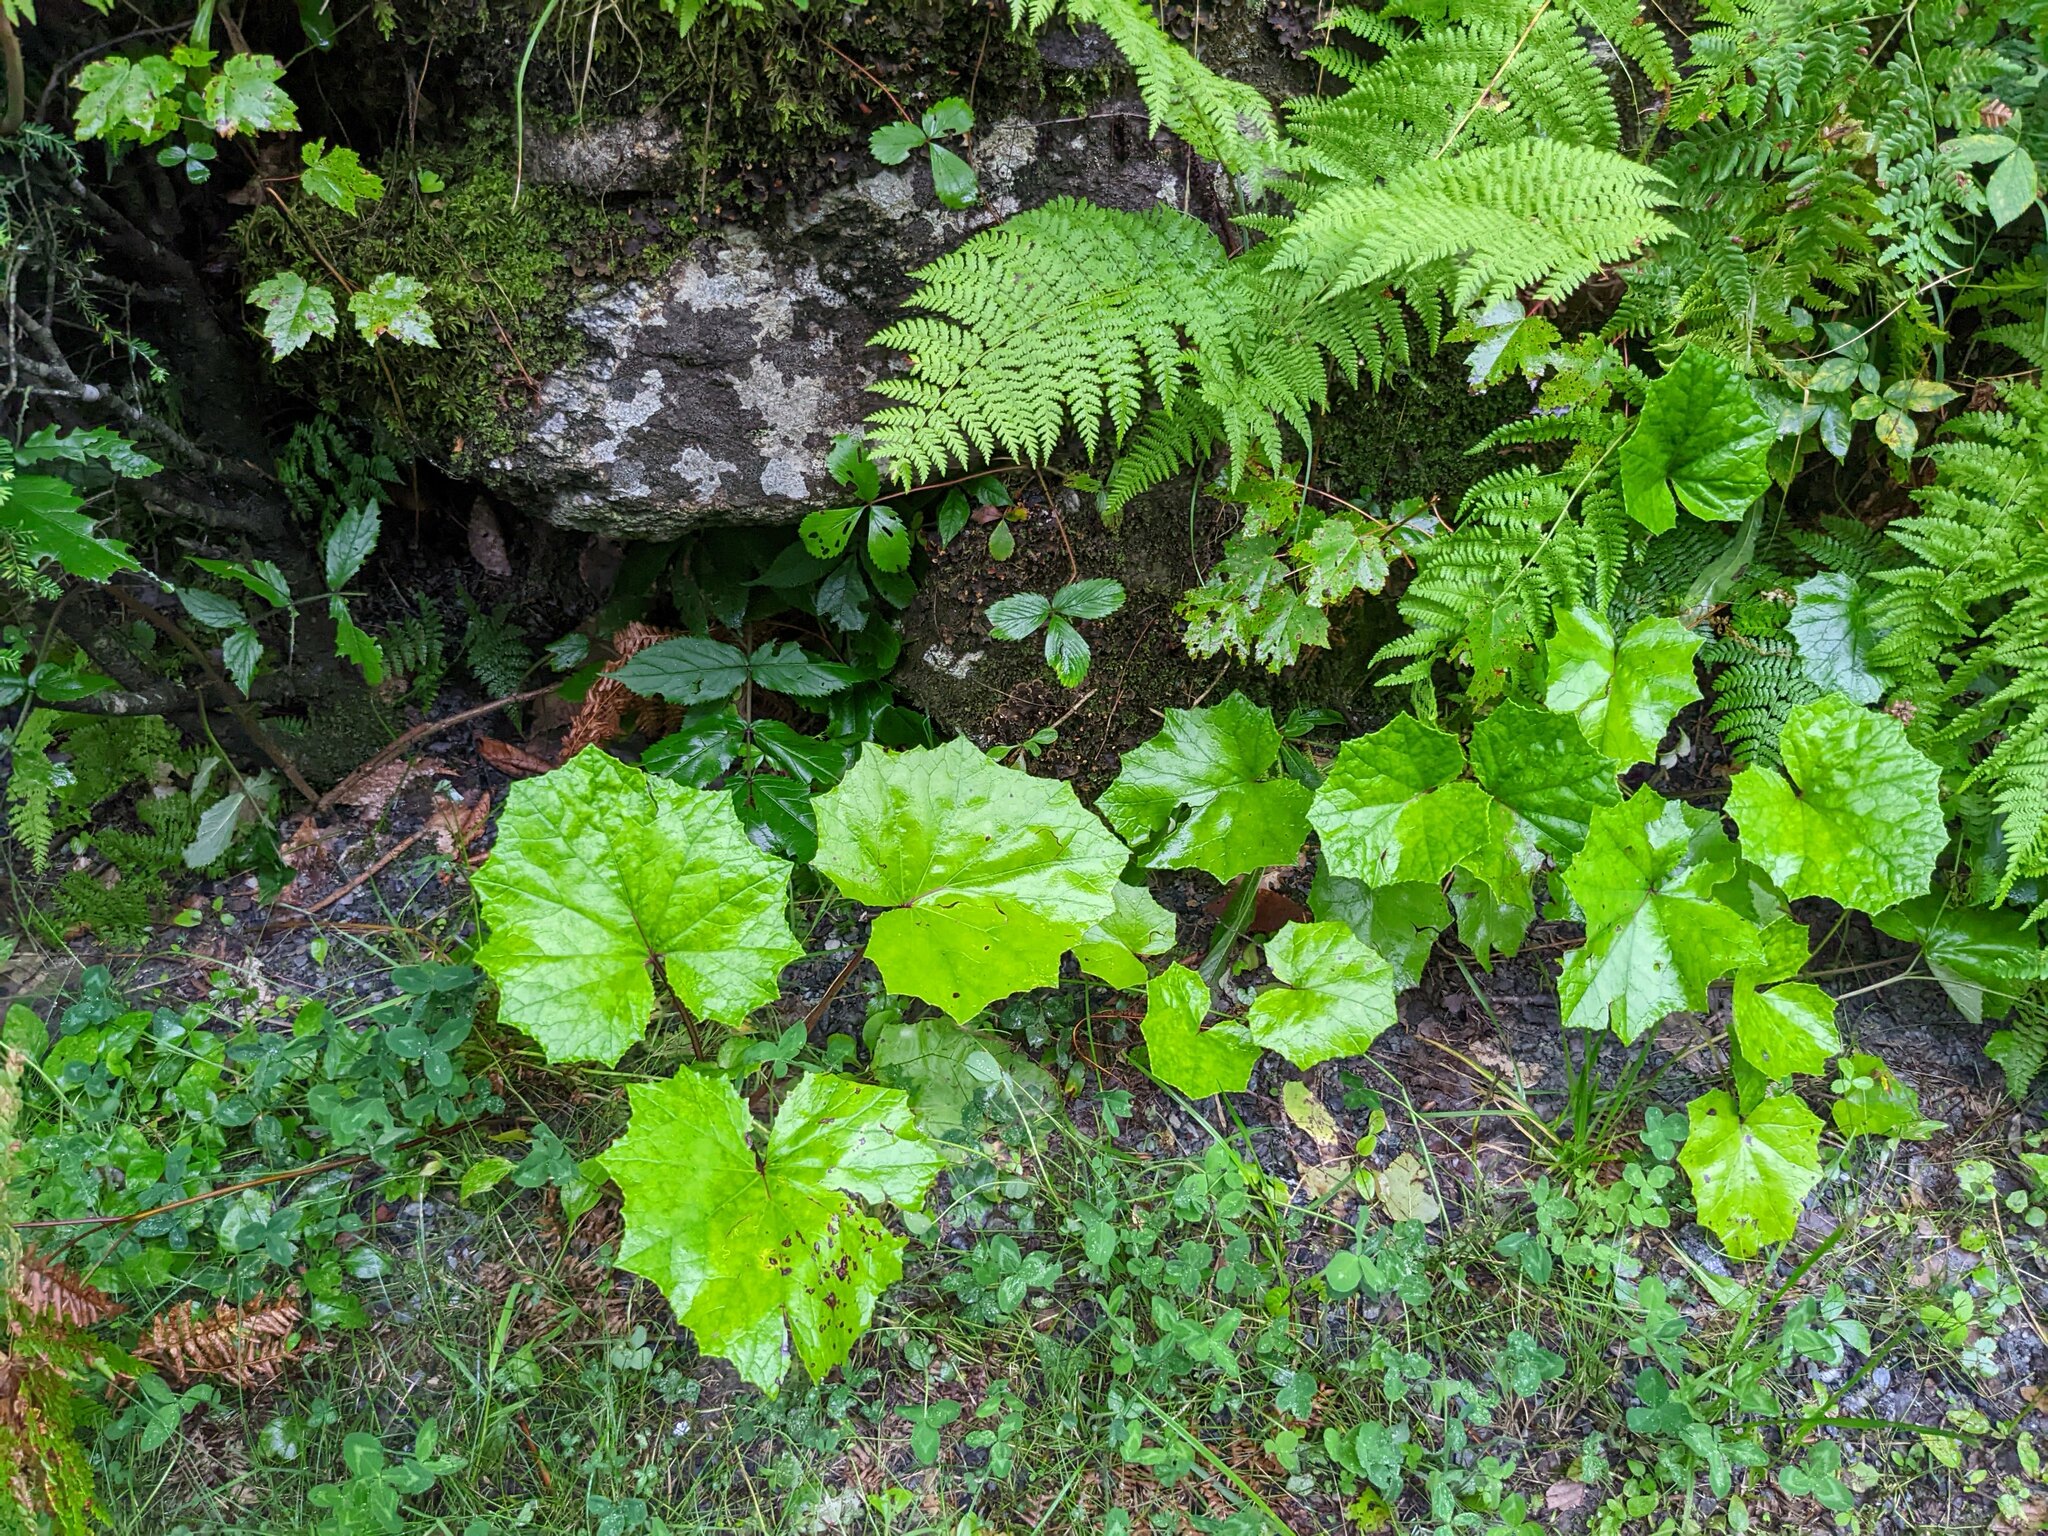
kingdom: Plantae
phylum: Tracheophyta
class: Magnoliopsida
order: Asterales
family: Asteraceae
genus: Tussilago
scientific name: Tussilago farfara
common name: Coltsfoot
